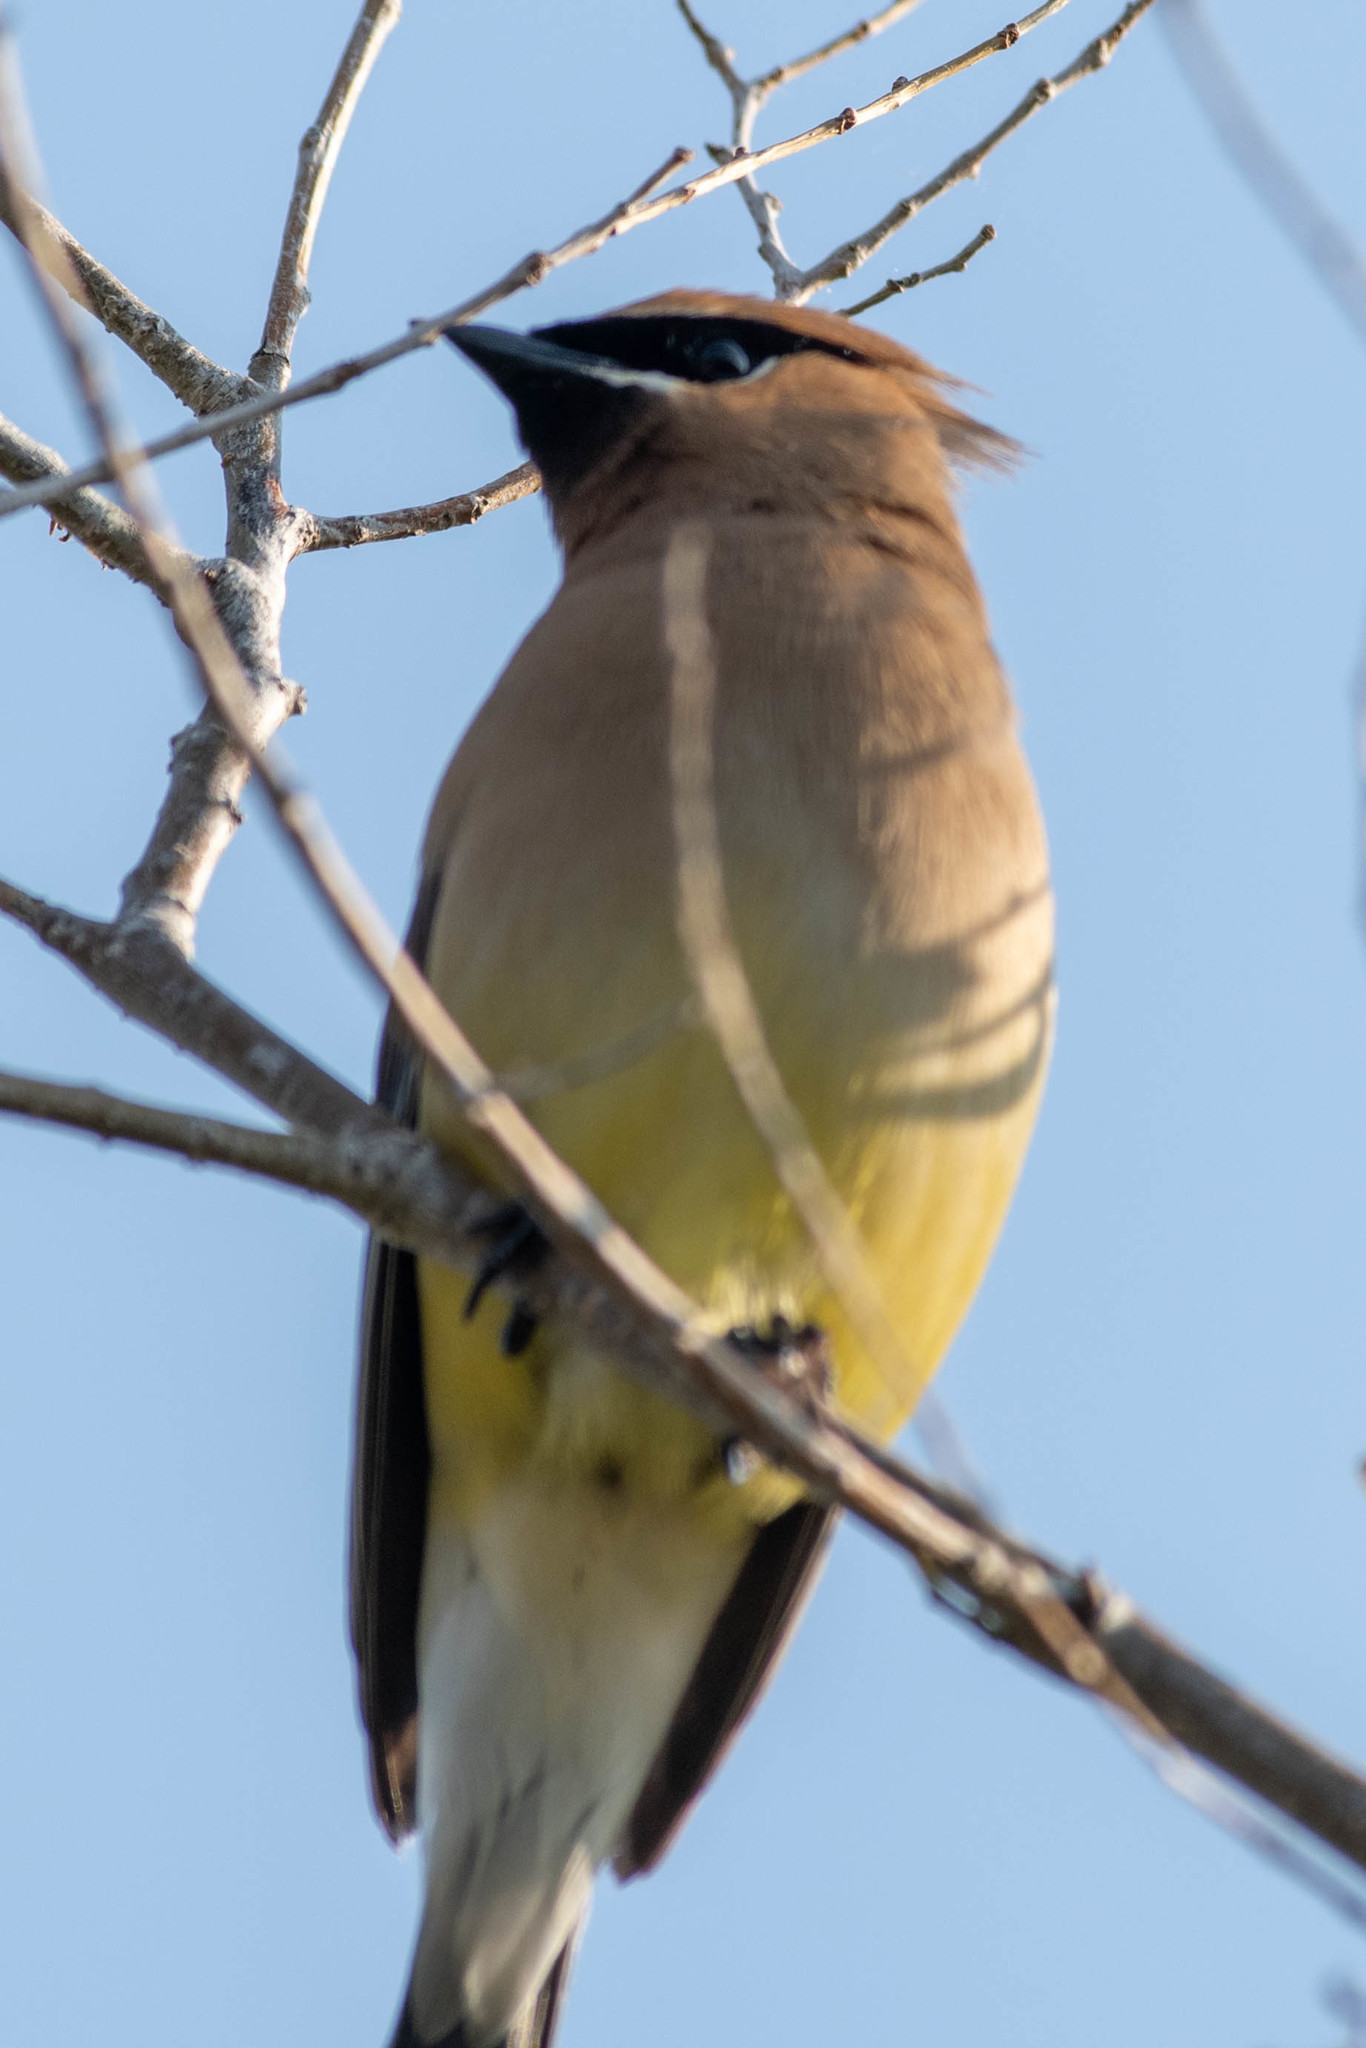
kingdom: Animalia
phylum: Chordata
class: Aves
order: Passeriformes
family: Bombycillidae
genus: Bombycilla
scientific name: Bombycilla cedrorum
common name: Cedar waxwing
